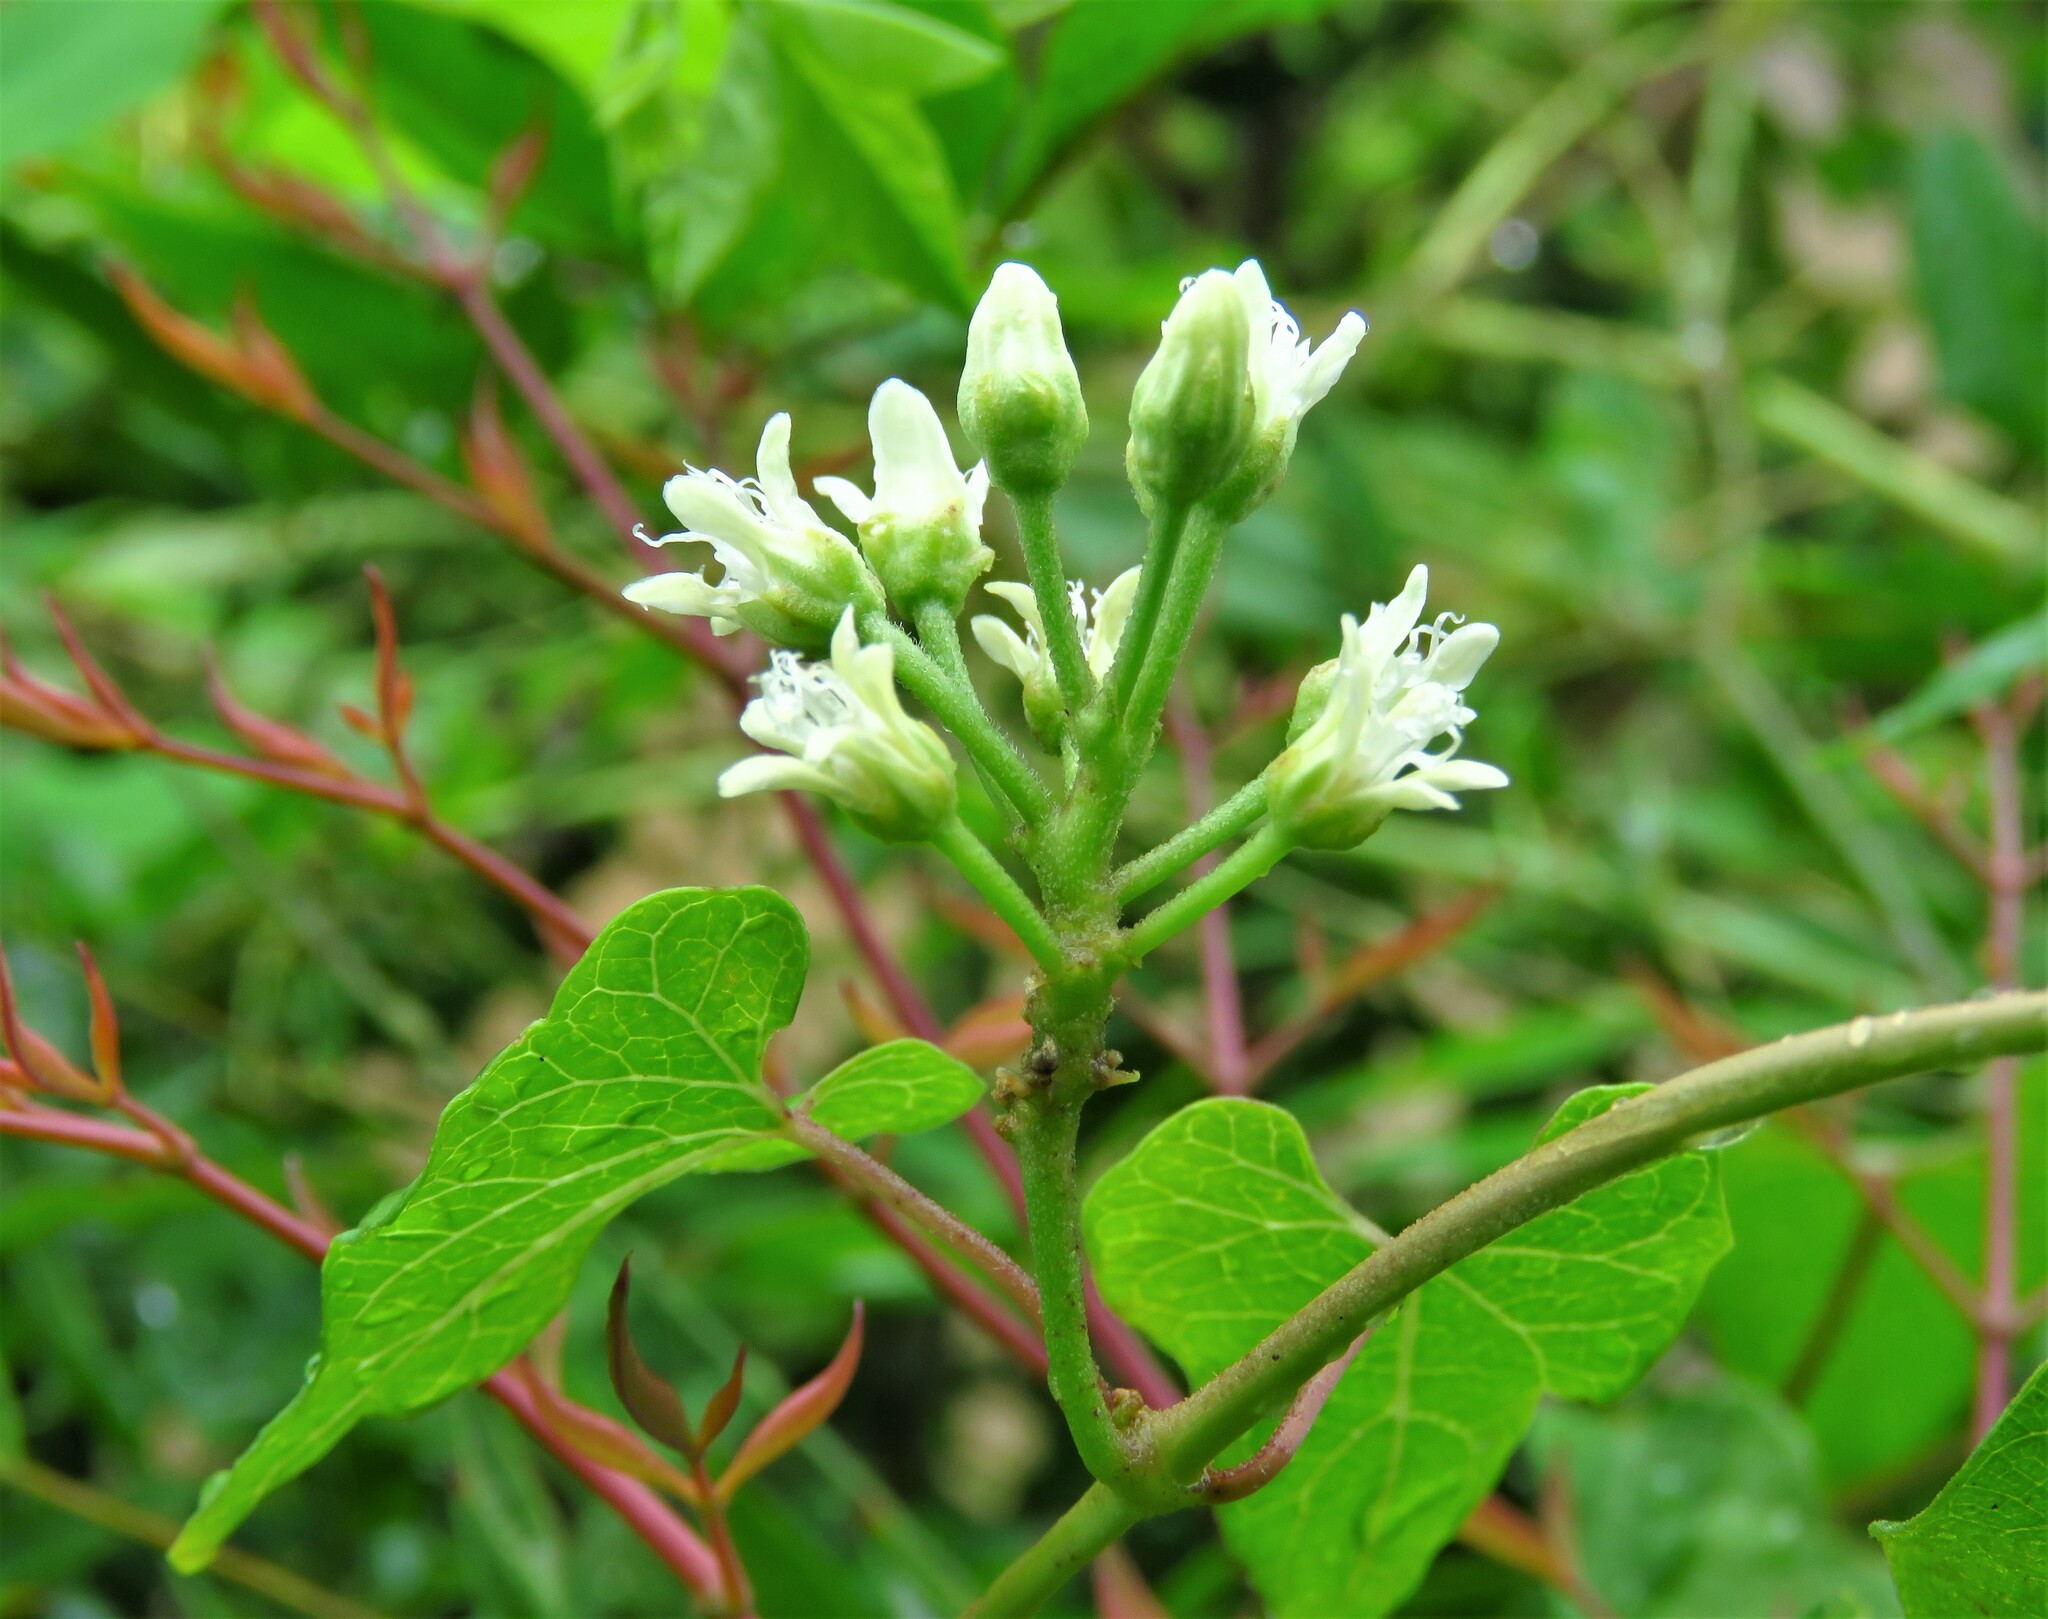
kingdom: Plantae
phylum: Tracheophyta
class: Magnoliopsida
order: Gentianales
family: Apocynaceae
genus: Cynanchum
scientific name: Cynanchum laeve
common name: Sandvine
